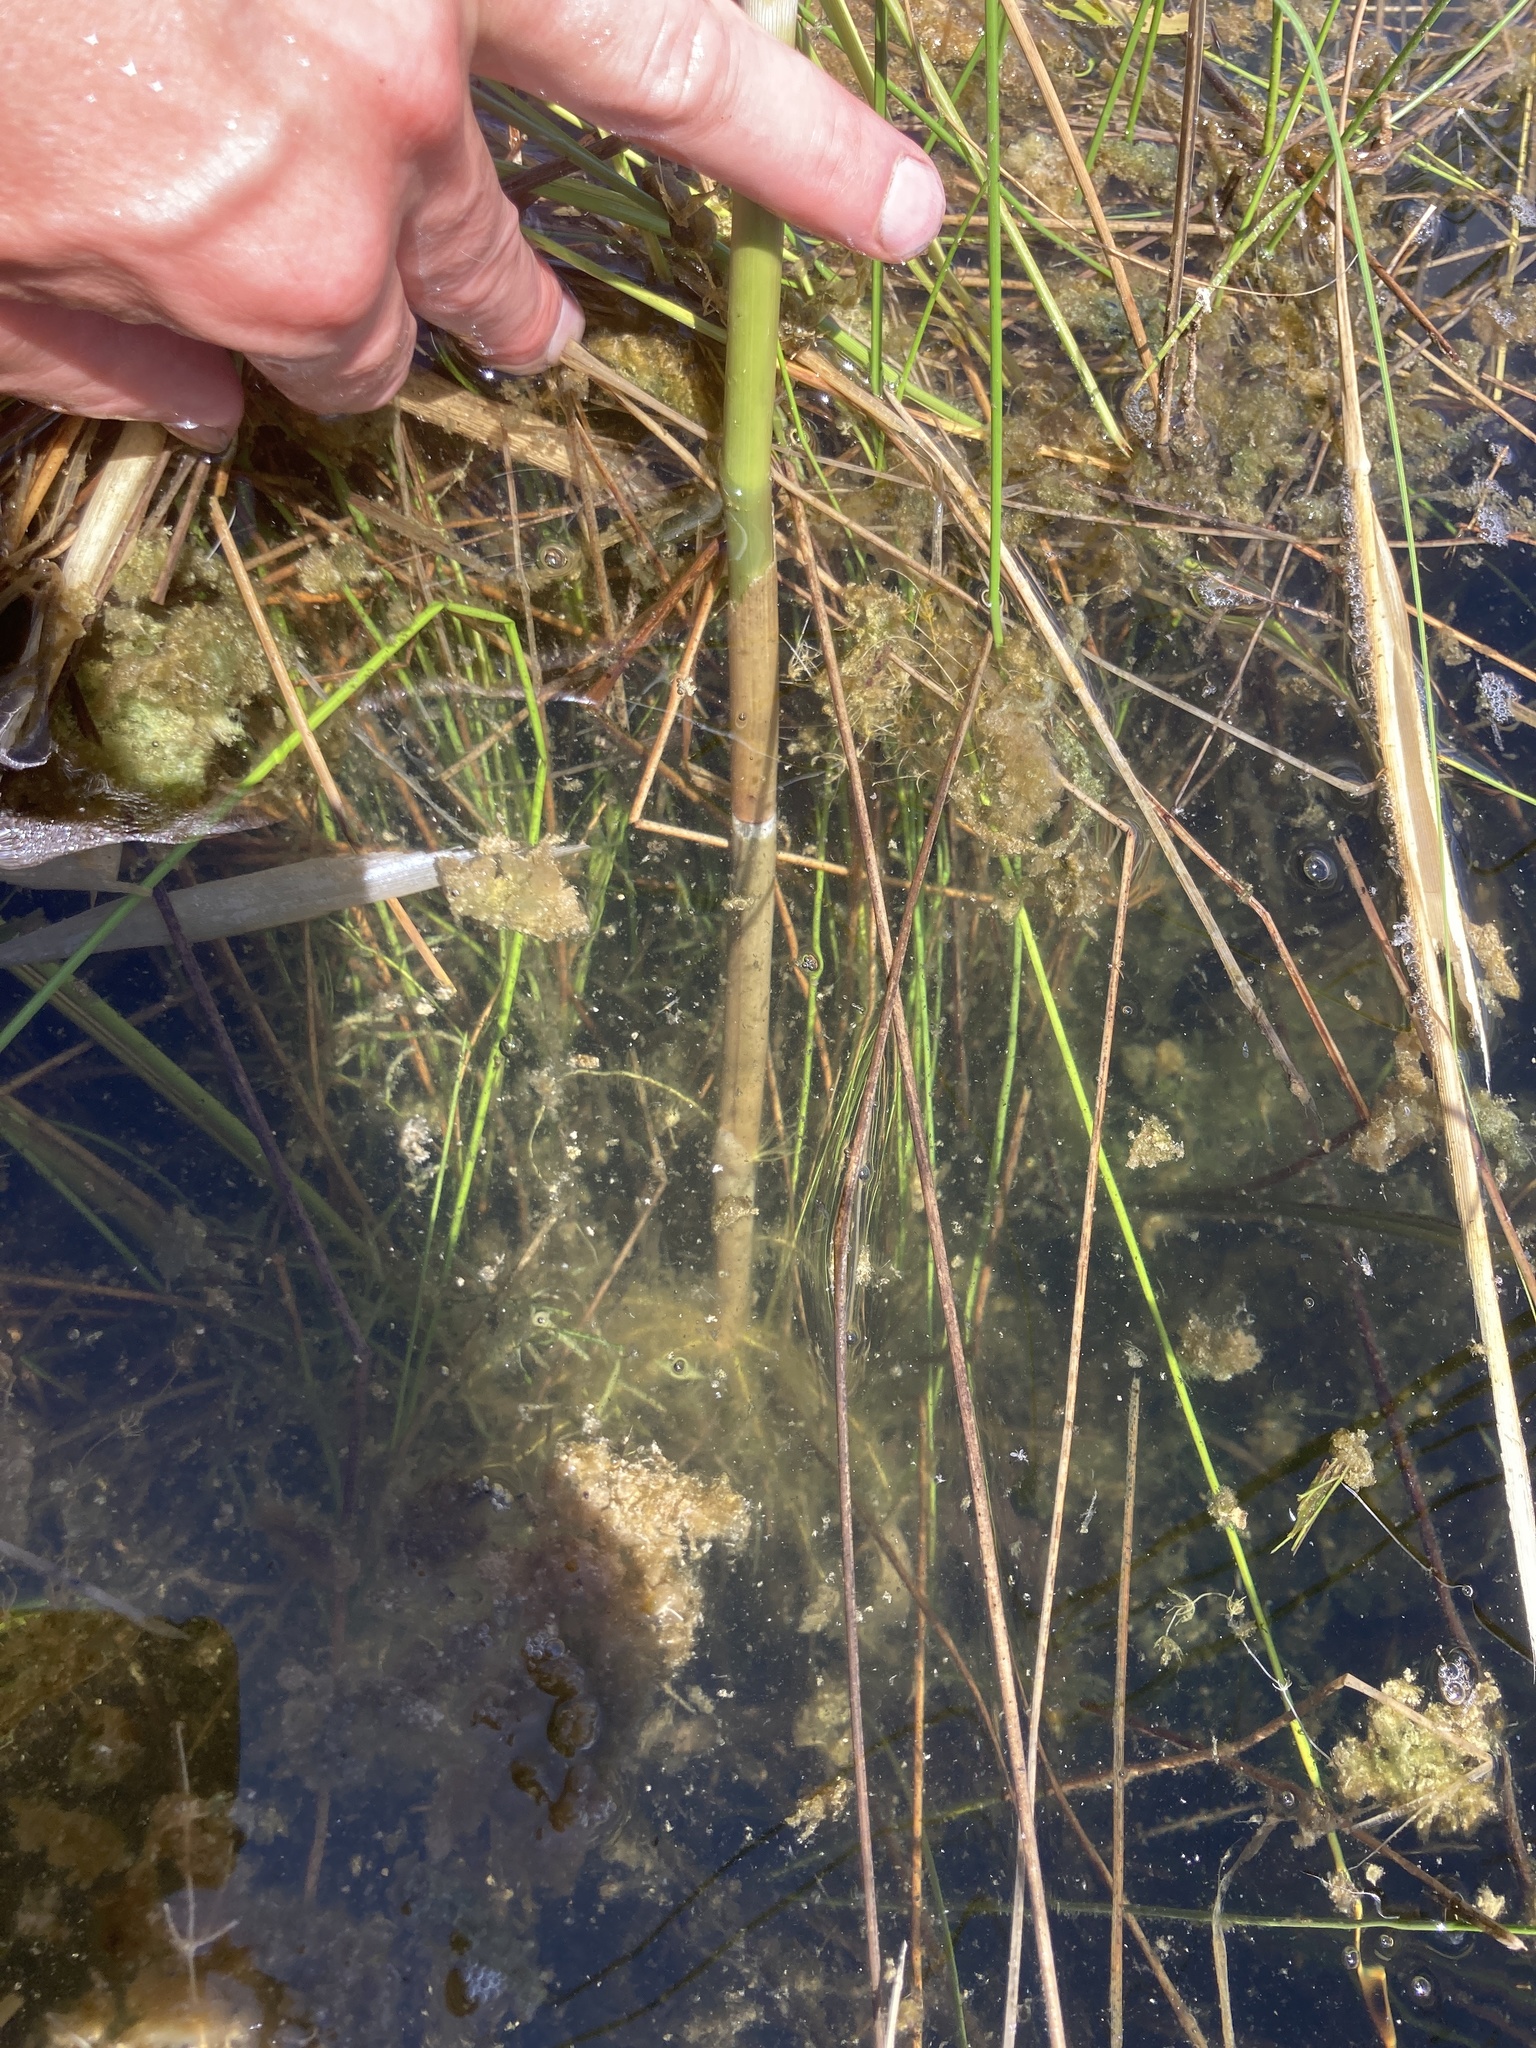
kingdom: Plantae
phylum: Tracheophyta
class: Liliopsida
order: Poales
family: Poaceae
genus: Phragmites
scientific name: Phragmites australis
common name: Common reed
